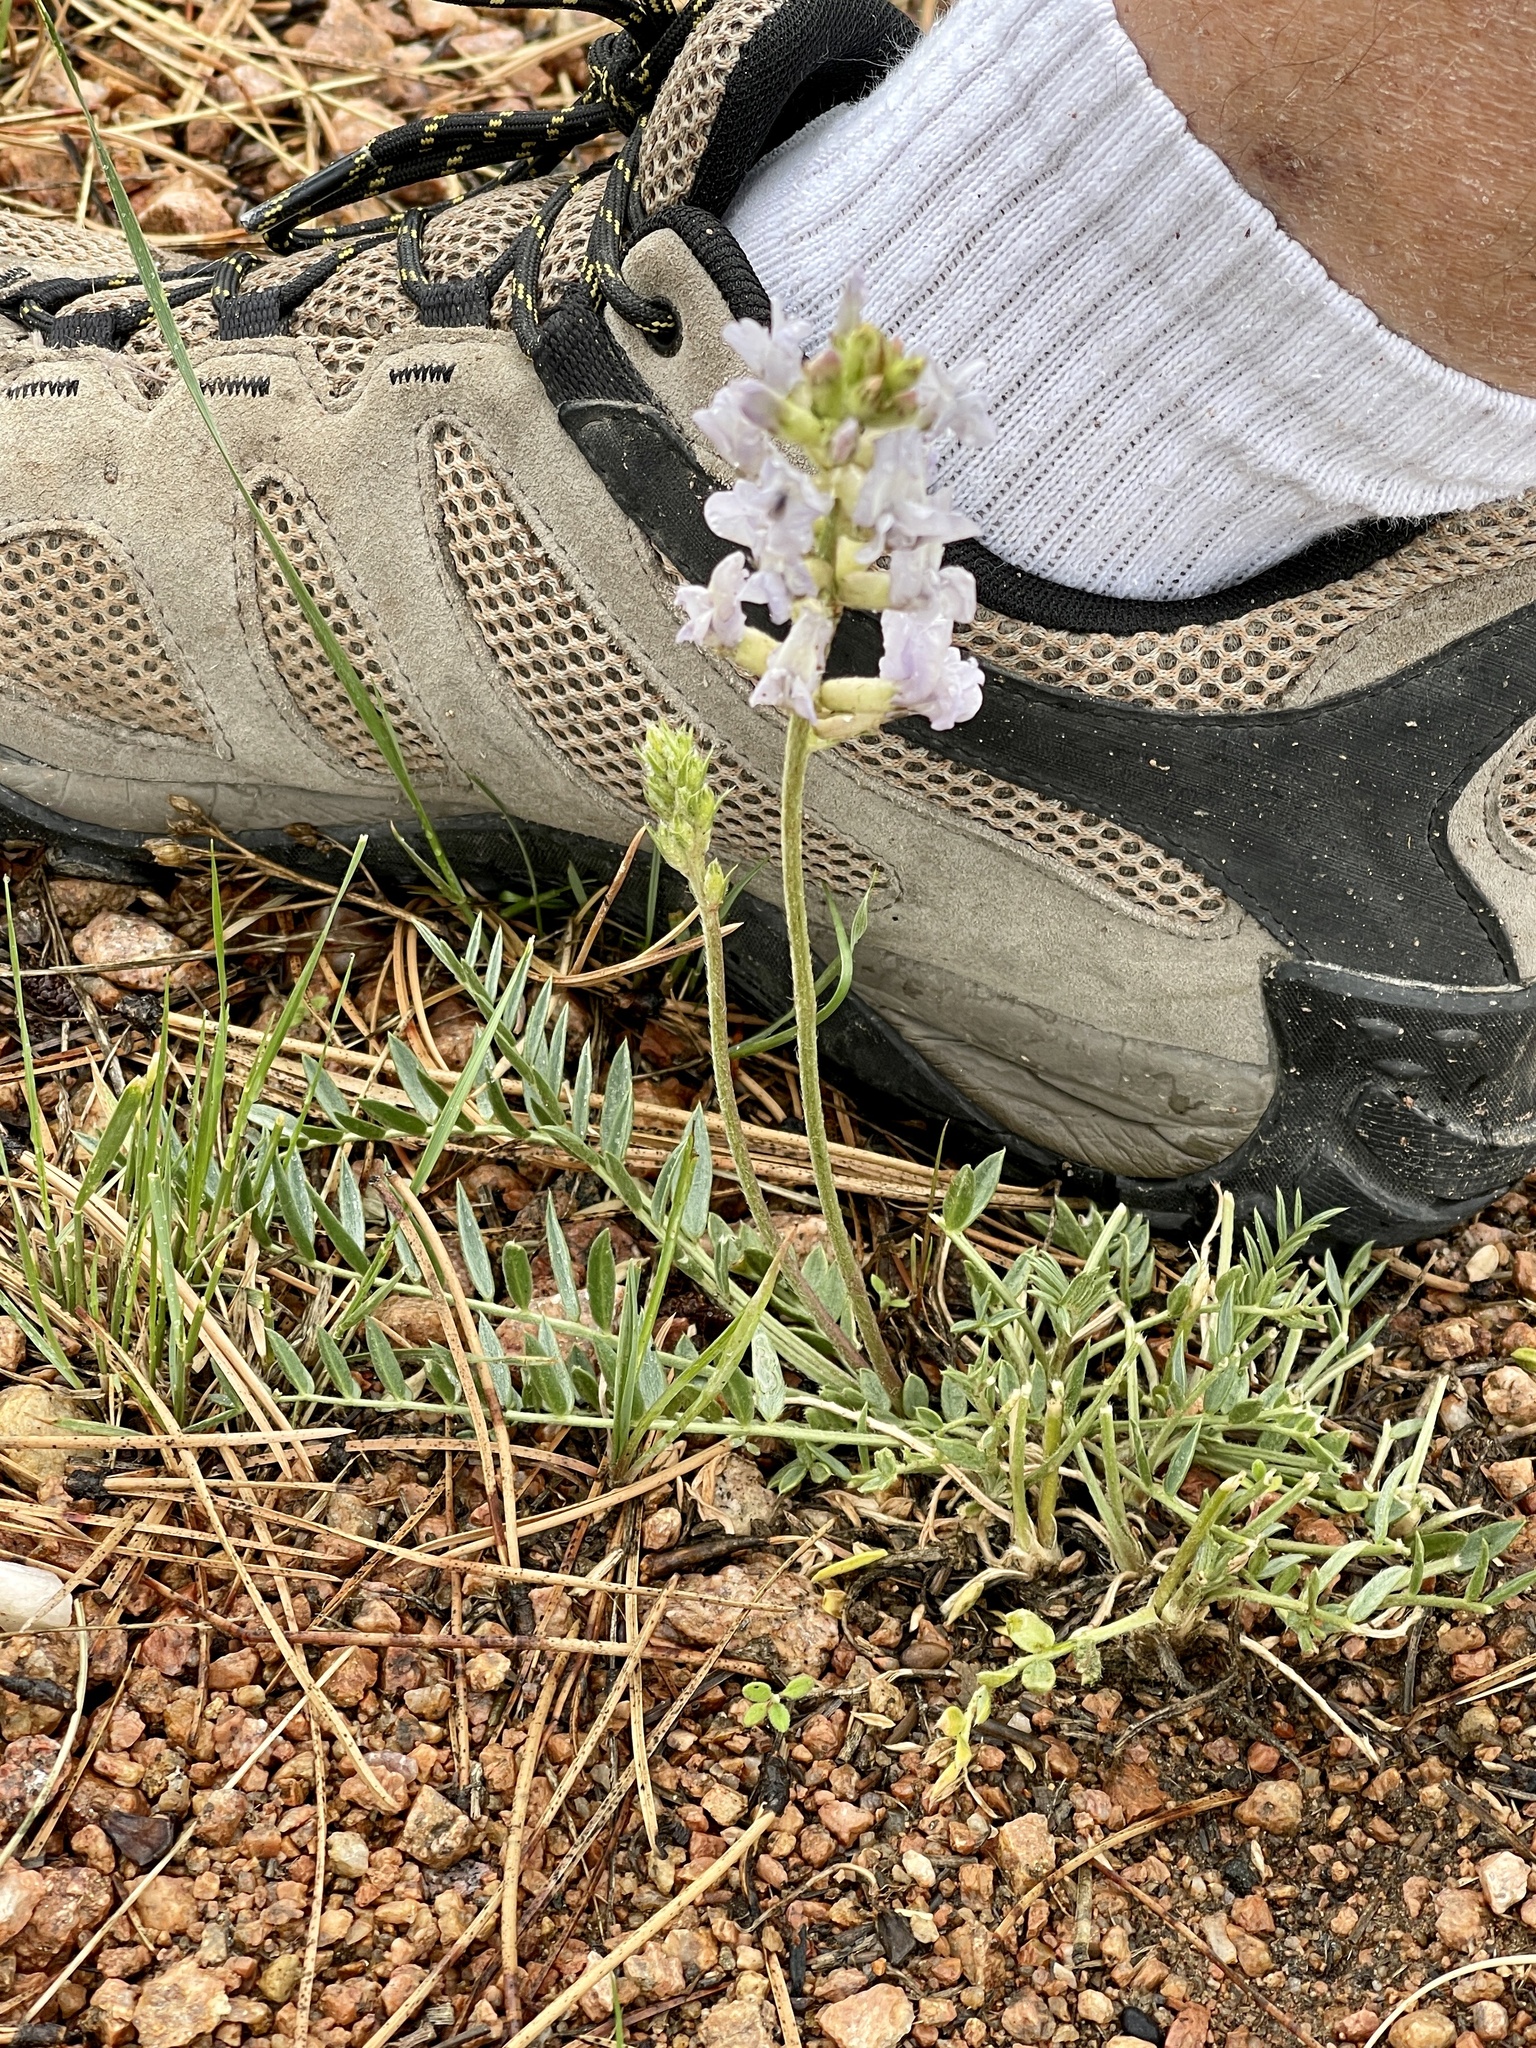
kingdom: Plantae
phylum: Tracheophyta
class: Magnoliopsida
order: Fabales
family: Fabaceae
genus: Oxytropis
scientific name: Oxytropis sericea
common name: Silky locoweed
